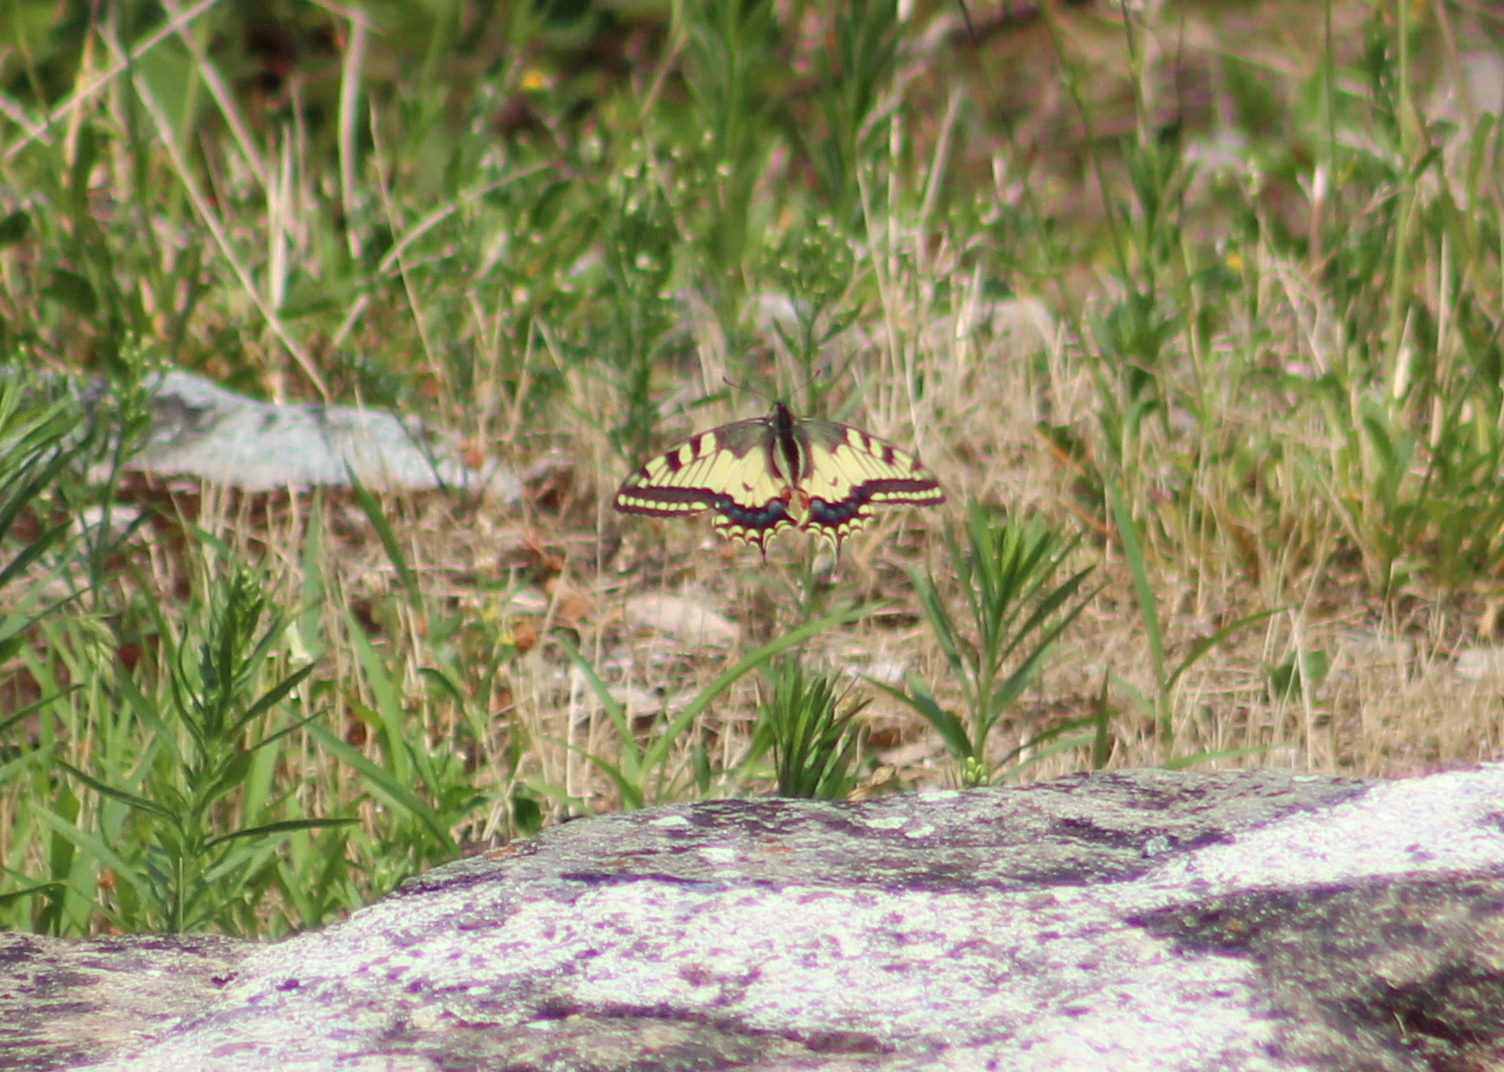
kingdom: Animalia
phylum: Arthropoda
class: Insecta
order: Lepidoptera
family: Papilionidae
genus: Papilio
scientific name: Papilio machaon
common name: Swallowtail
